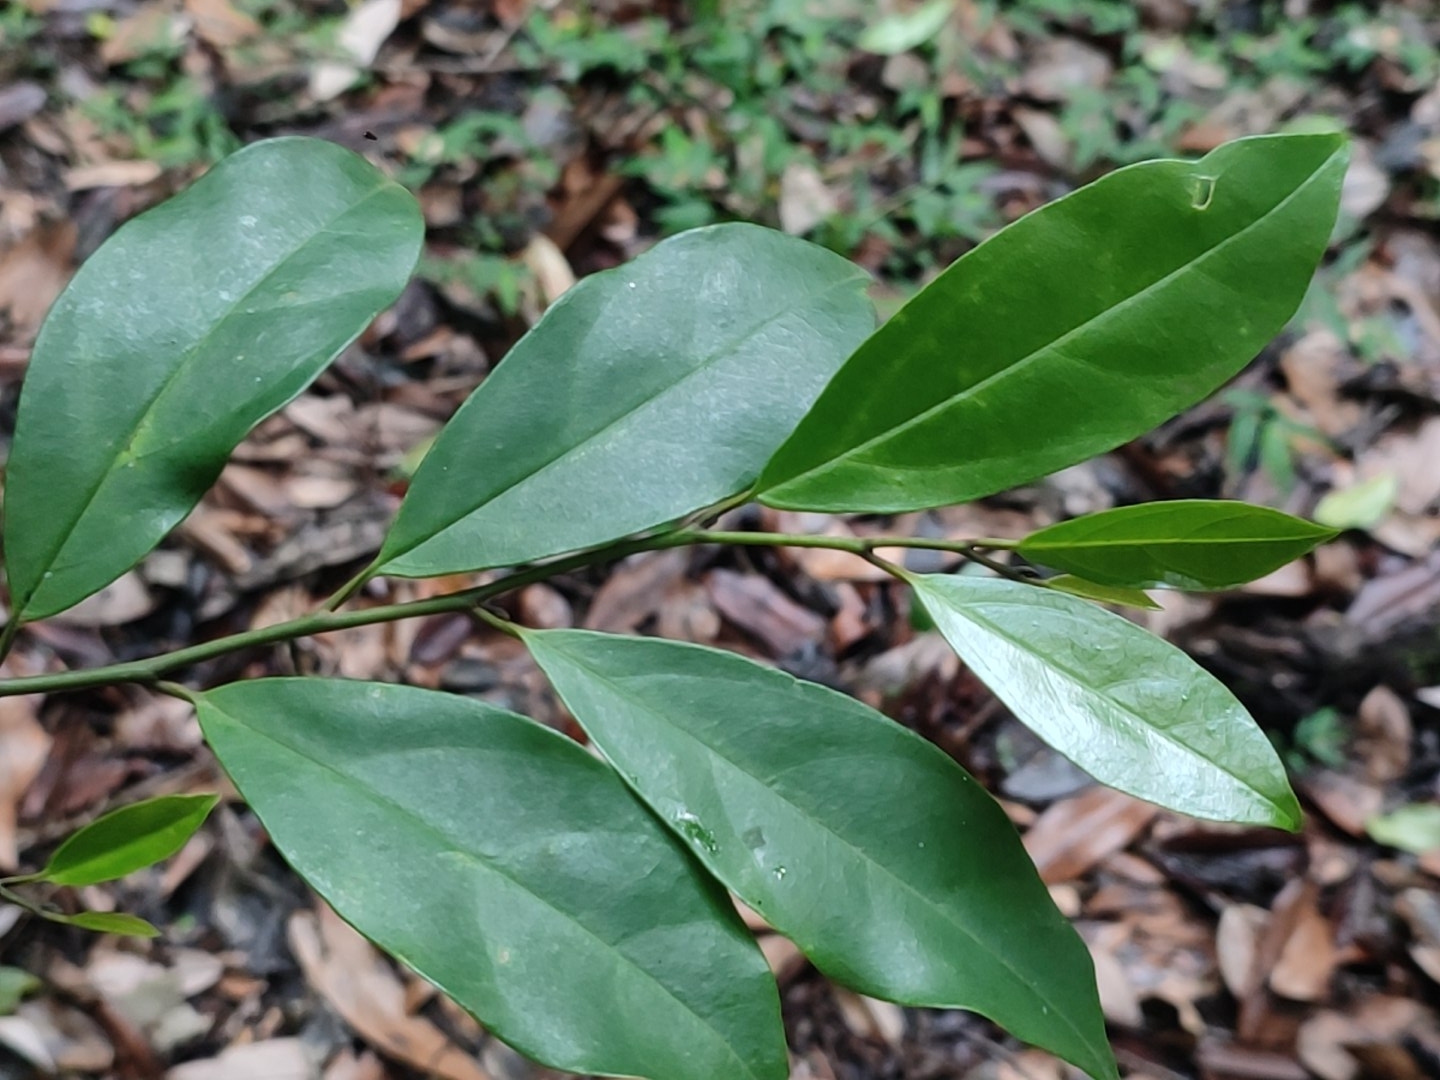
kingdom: Plantae
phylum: Tracheophyta
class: Magnoliopsida
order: Cardiopteridales
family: Stemonuraceae
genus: Gomphandra
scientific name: Gomphandra coriacea
